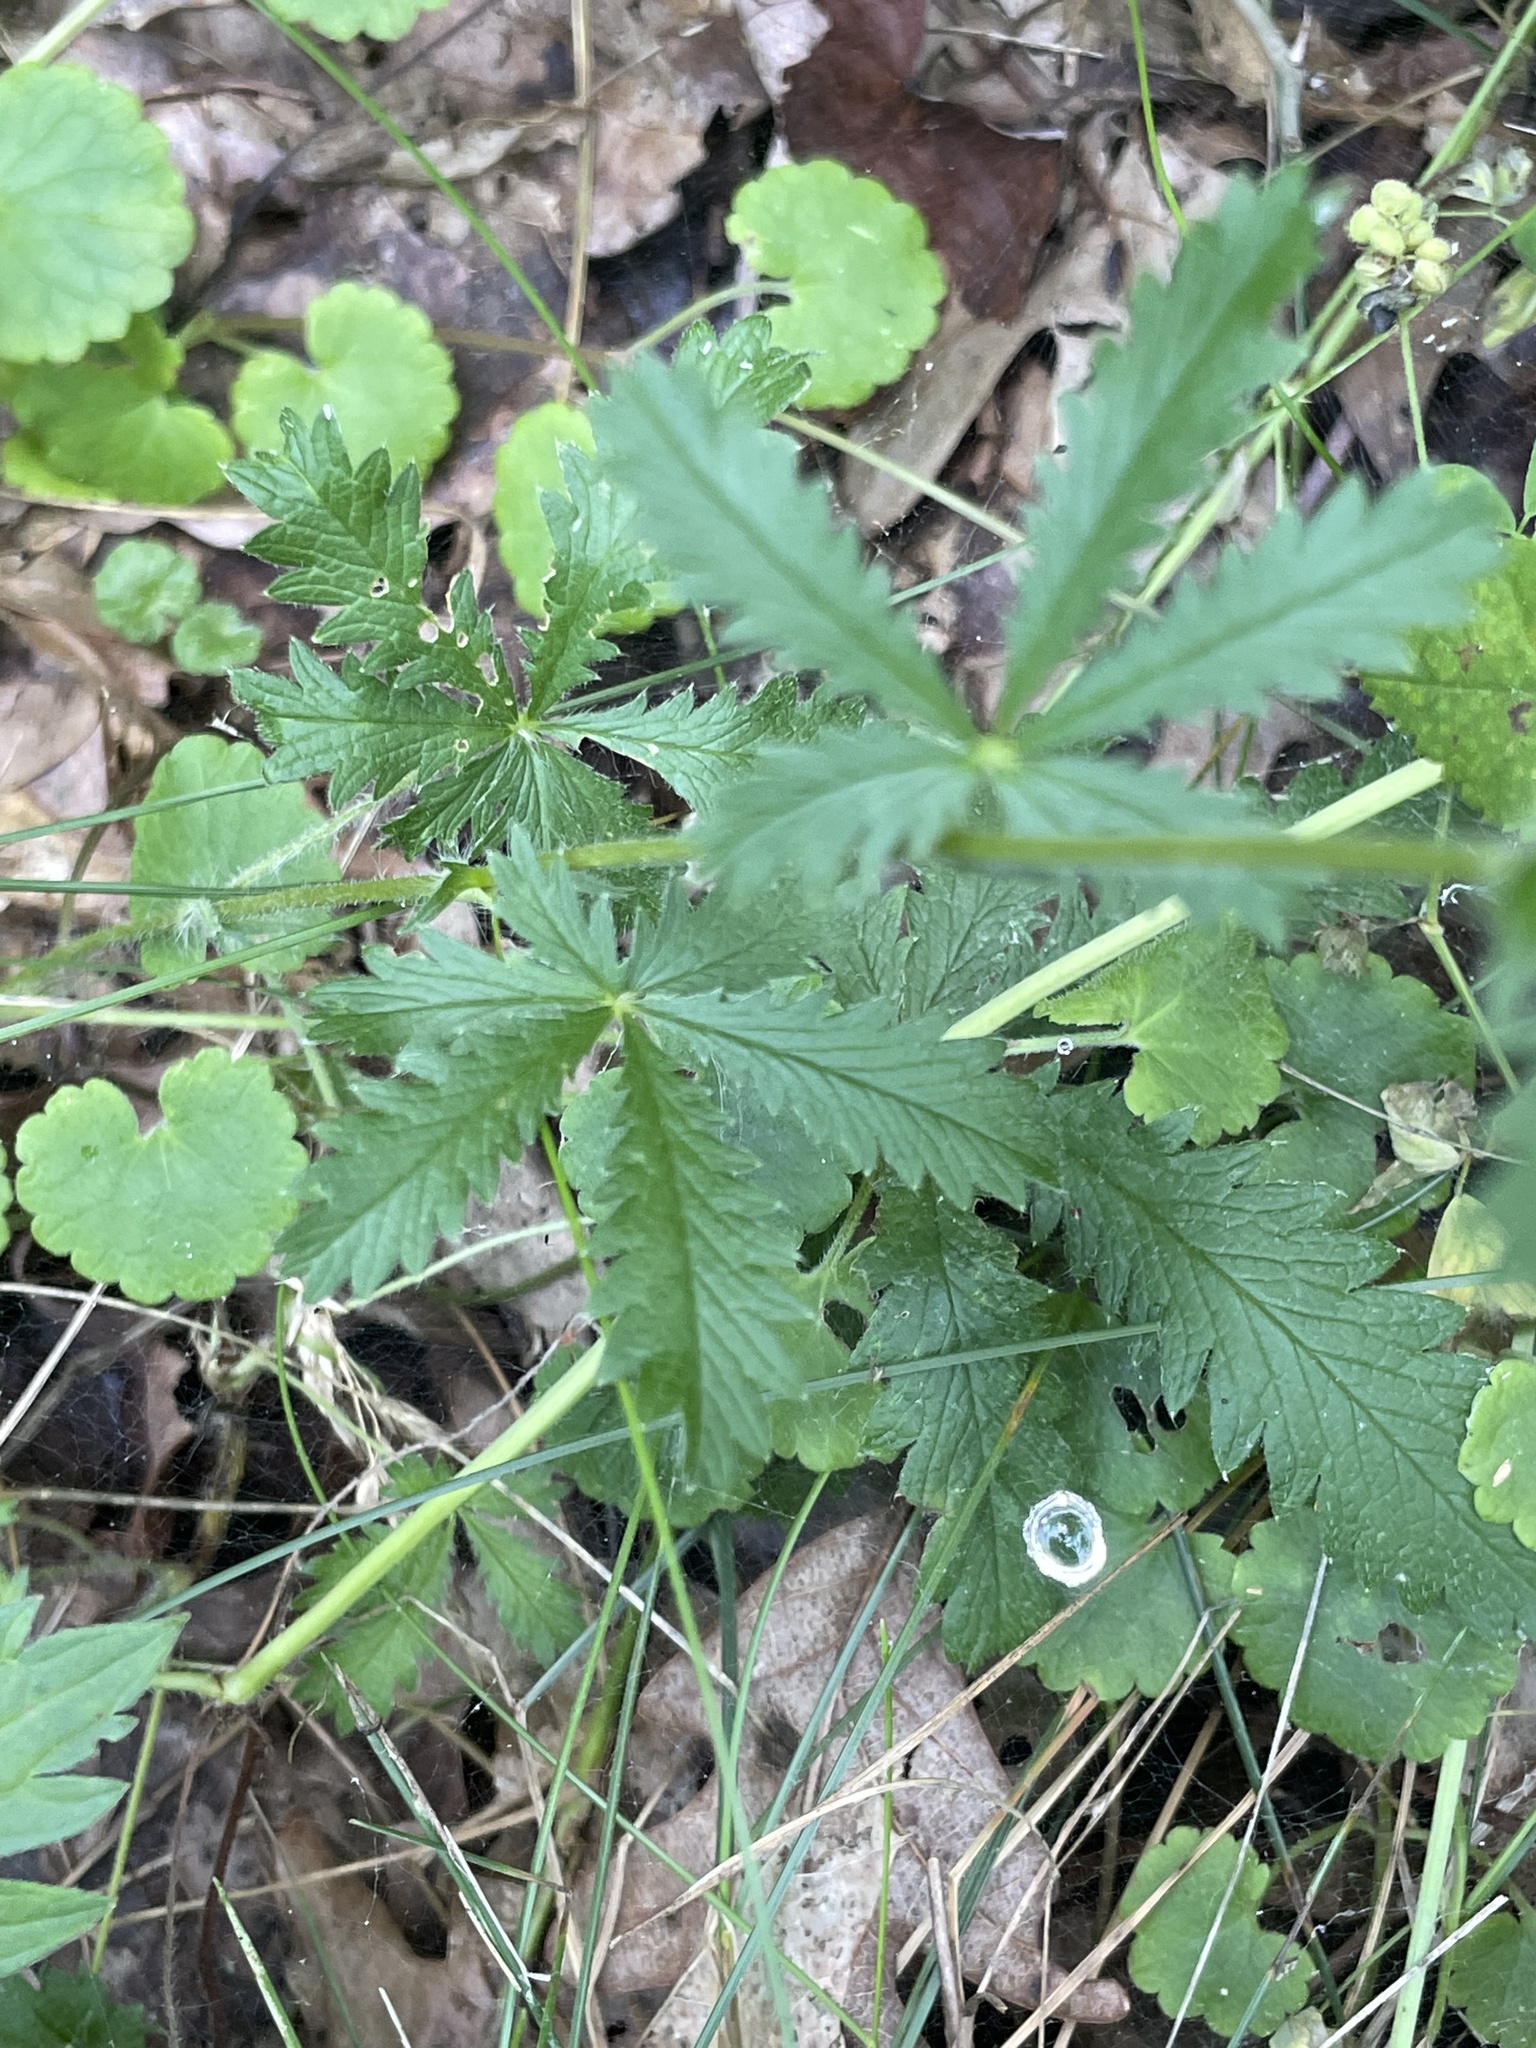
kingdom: Plantae
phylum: Tracheophyta
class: Magnoliopsida
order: Rosales
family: Rosaceae
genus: Potentilla
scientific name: Potentilla recta
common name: Sulphur cinquefoil
